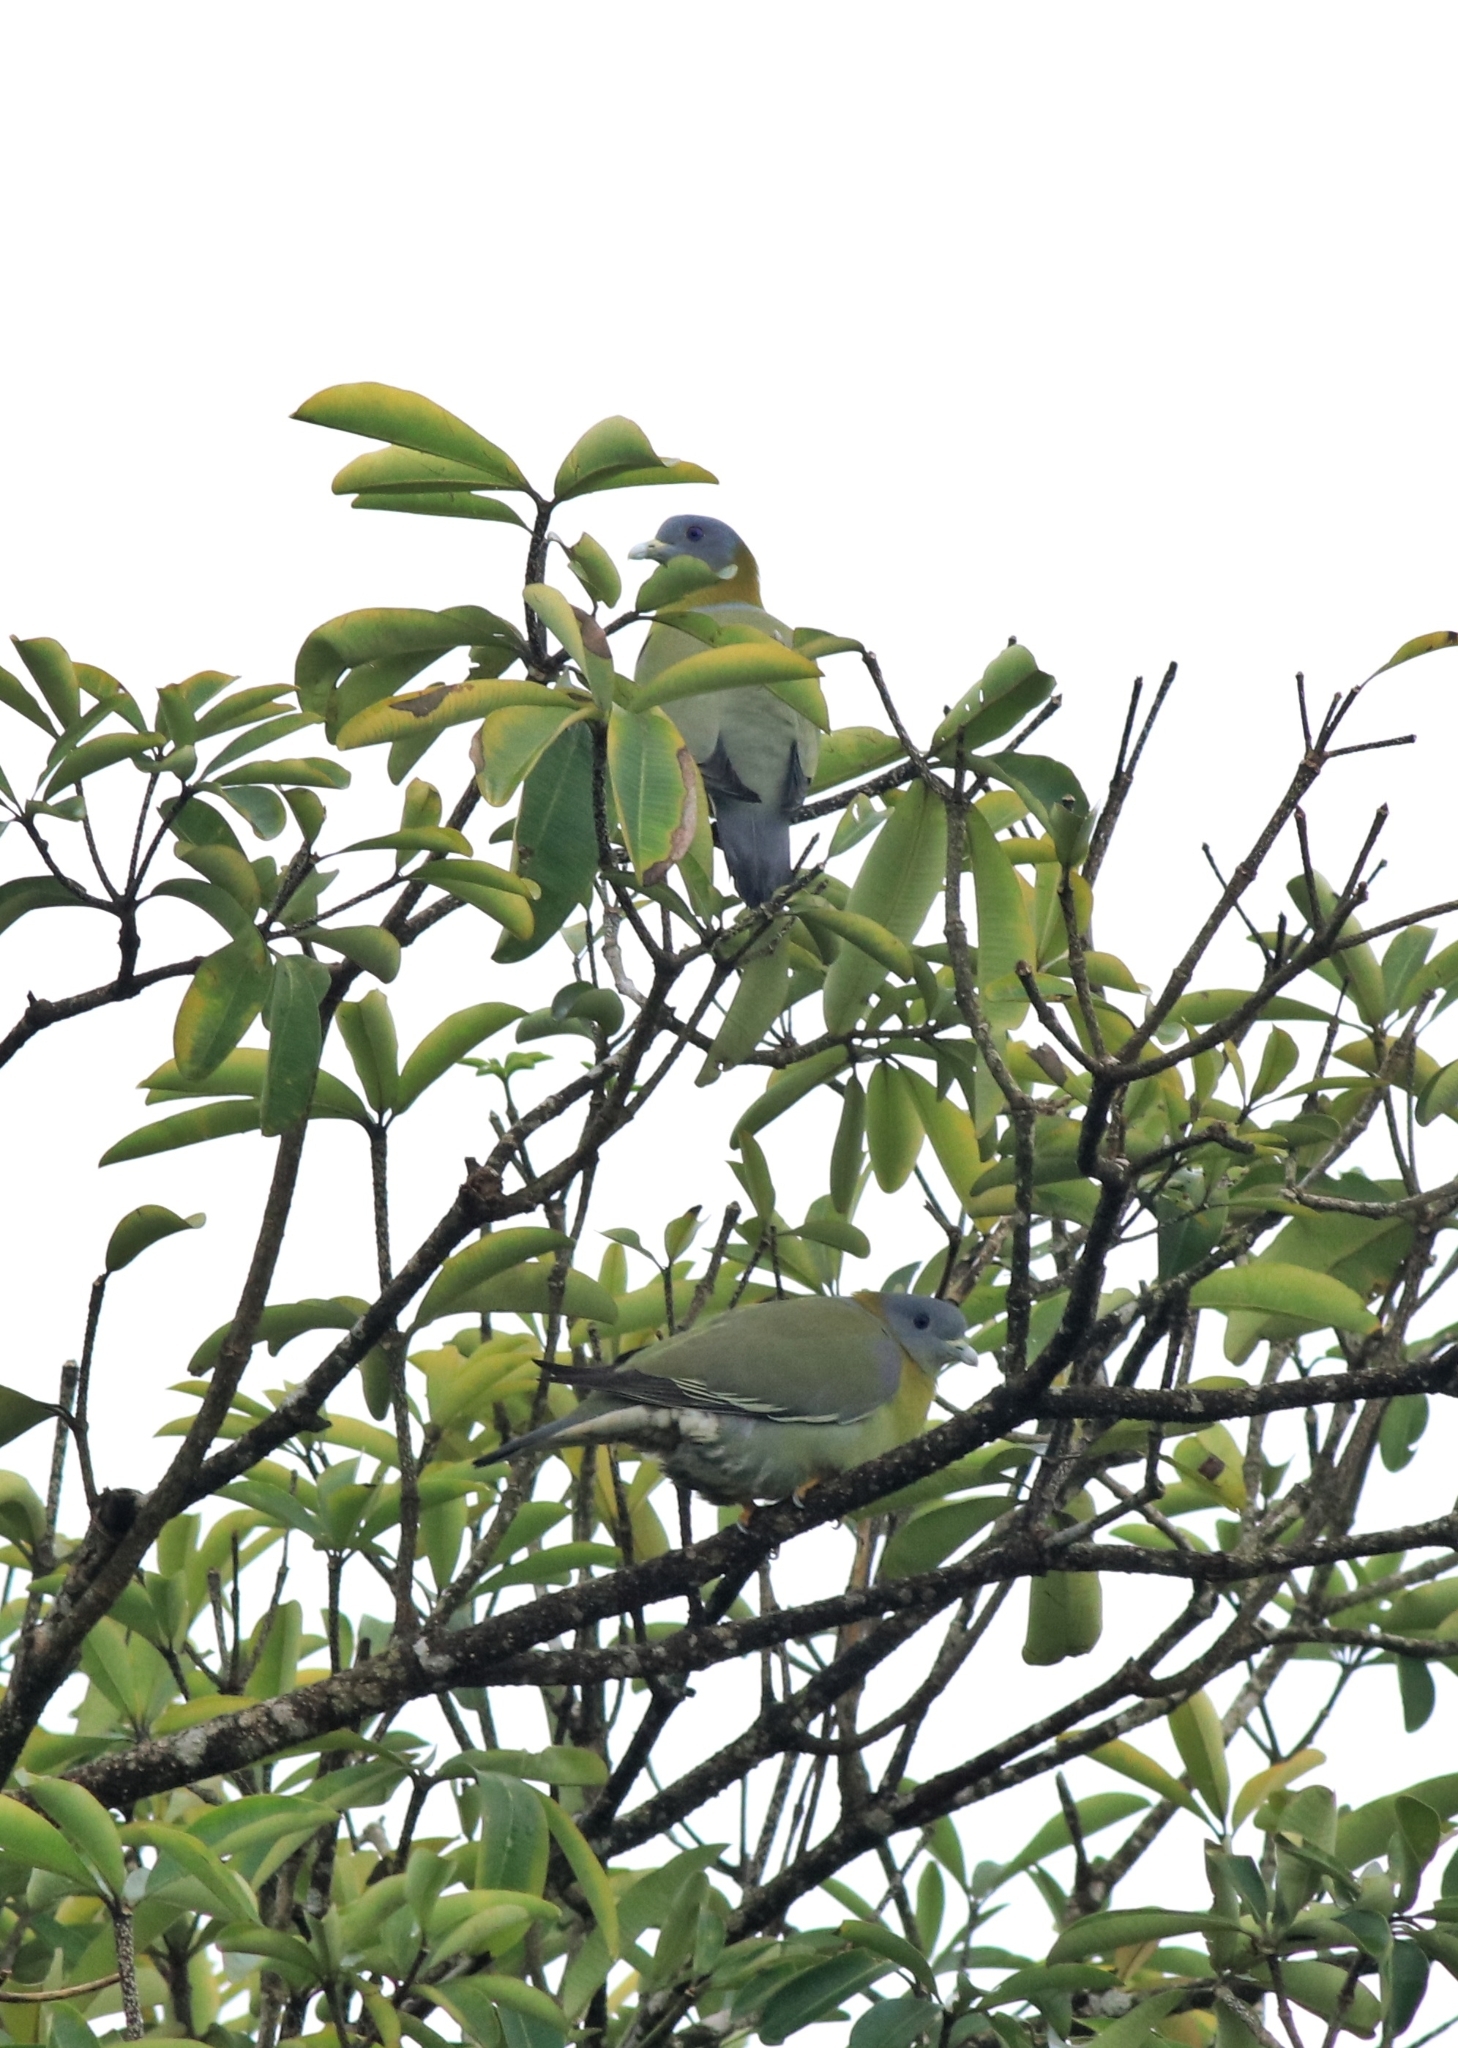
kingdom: Animalia
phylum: Chordata
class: Aves
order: Columbiformes
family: Columbidae
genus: Treron
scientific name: Treron phoenicopterus
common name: Yellow-footed green pigeon
